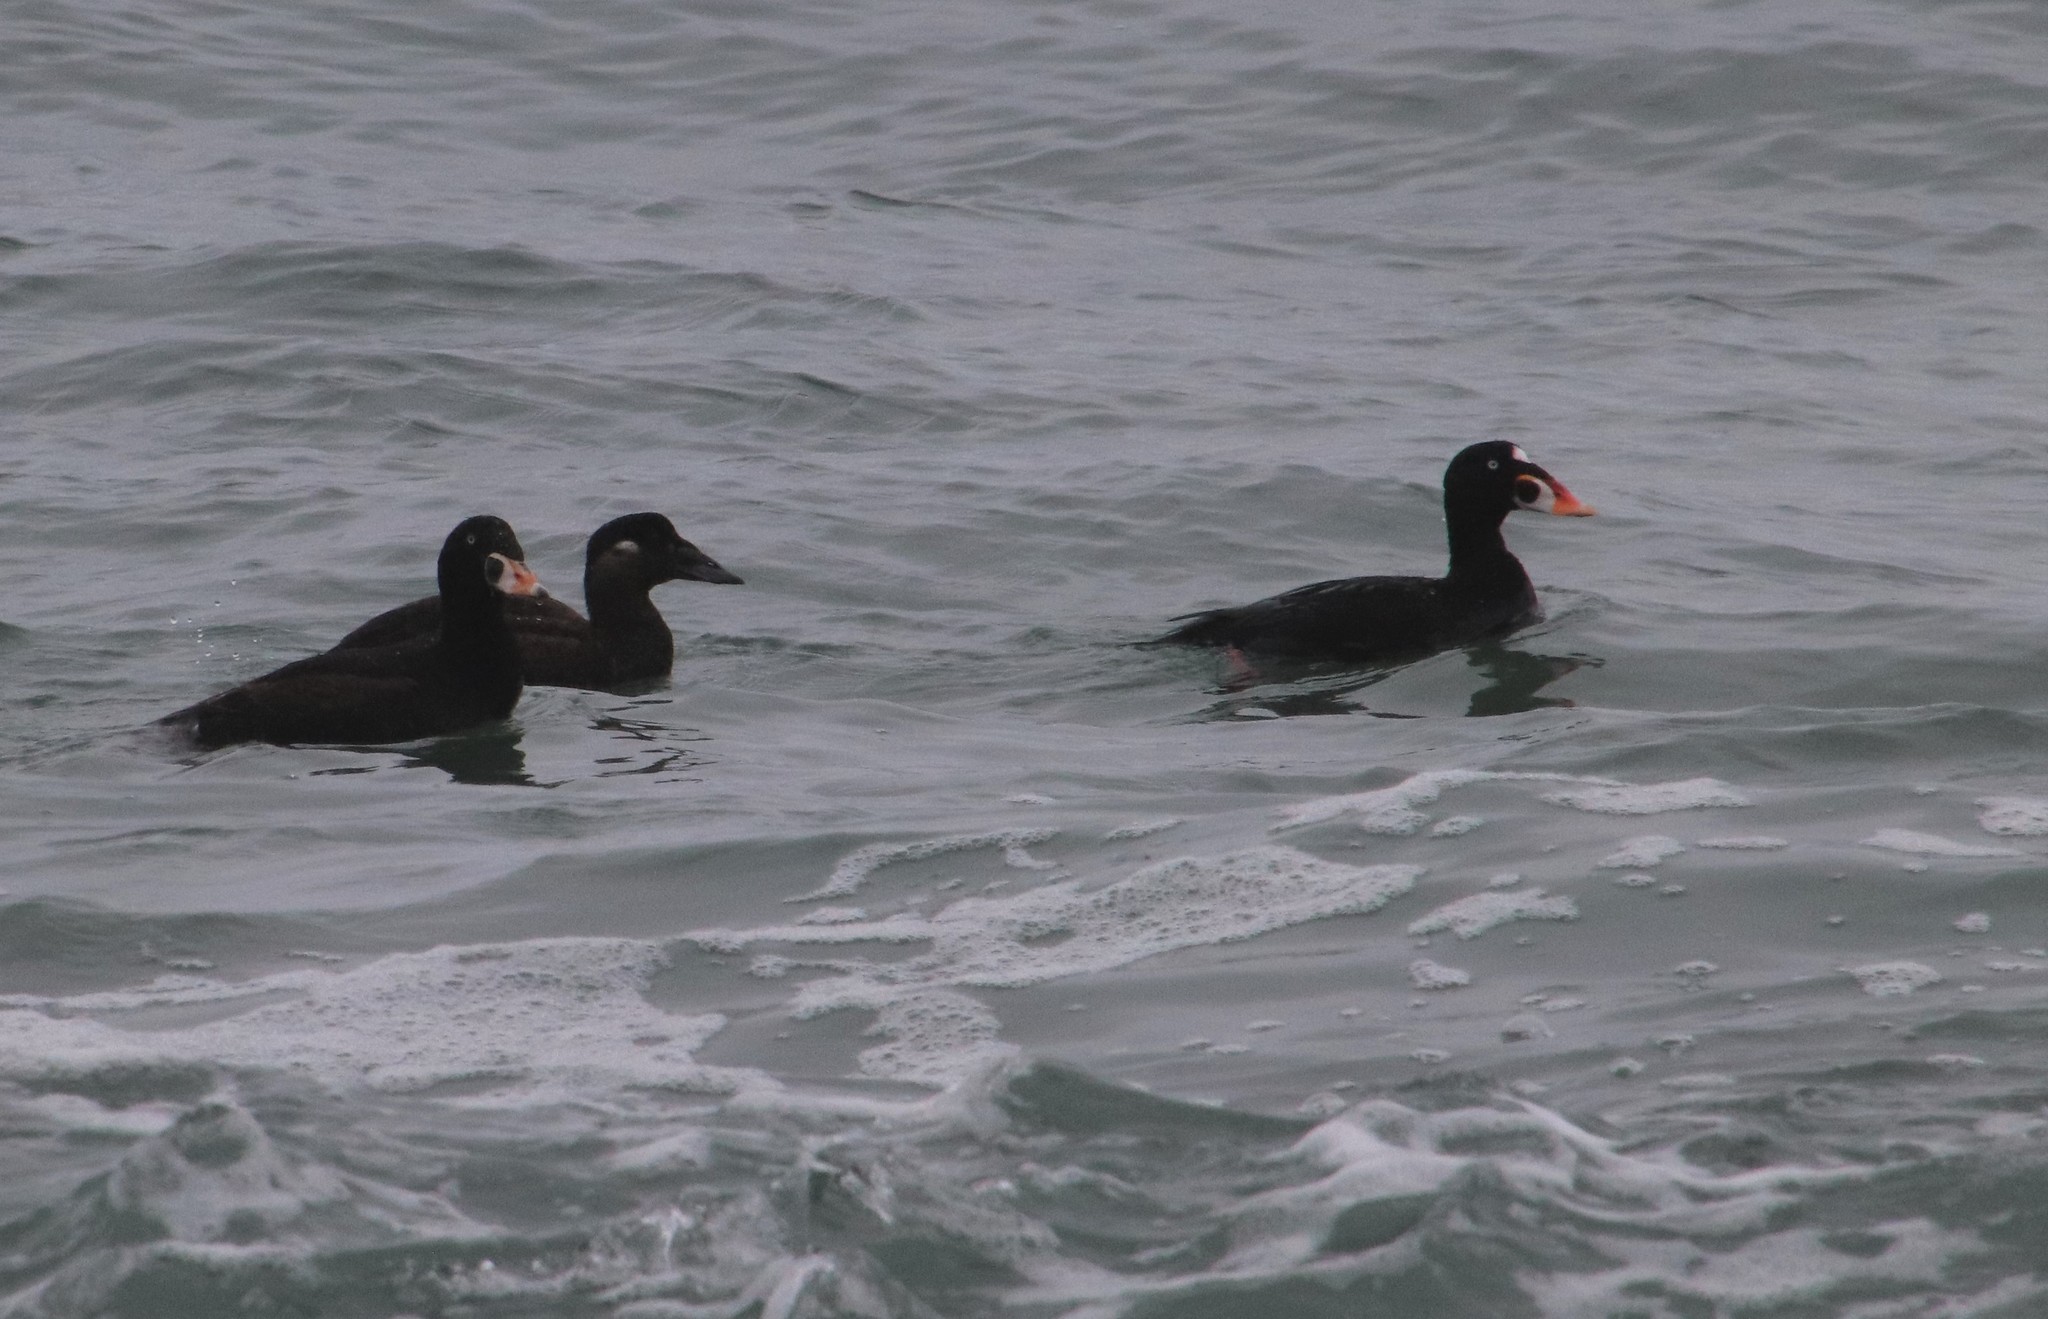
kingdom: Animalia
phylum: Chordata
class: Aves
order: Anseriformes
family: Anatidae
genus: Melanitta
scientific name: Melanitta perspicillata
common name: Surf scoter
